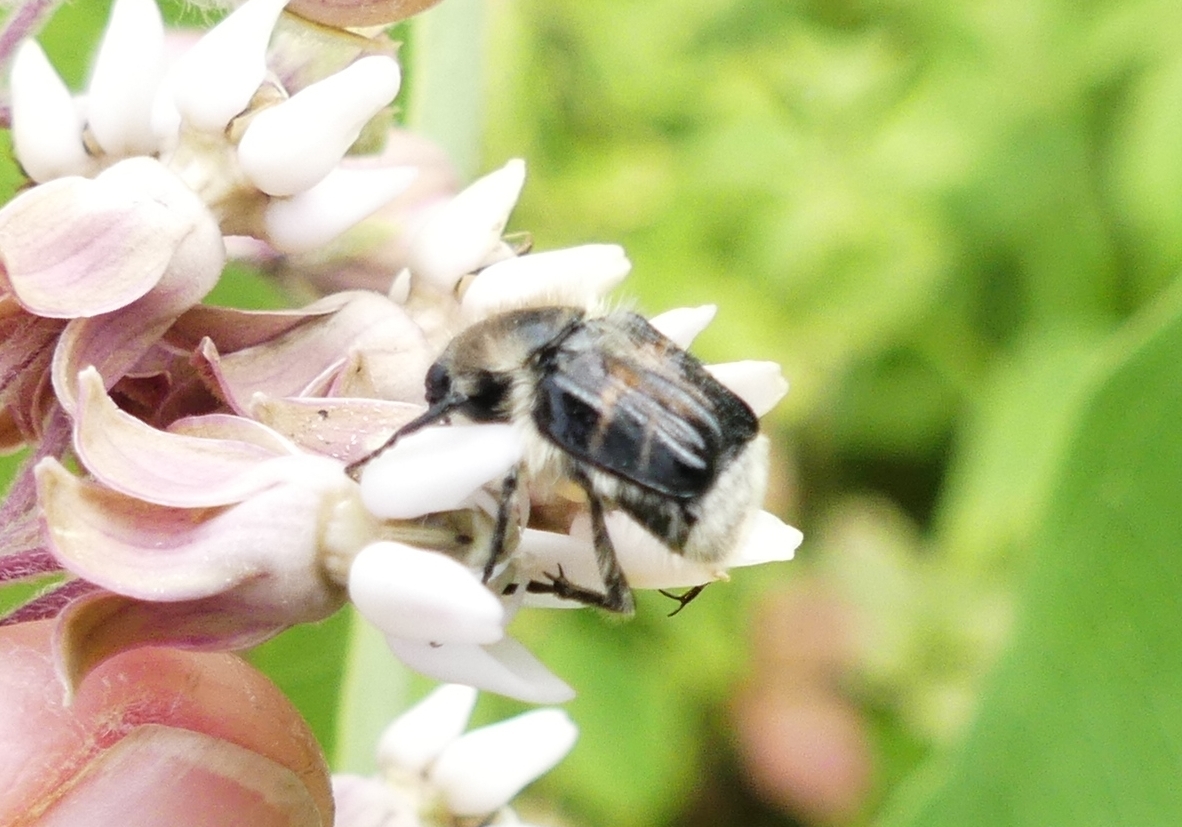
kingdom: Animalia
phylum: Arthropoda
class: Insecta
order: Coleoptera
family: Scarabaeidae
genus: Trichiotinus
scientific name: Trichiotinus assimilis
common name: Bee-mimic beetle
